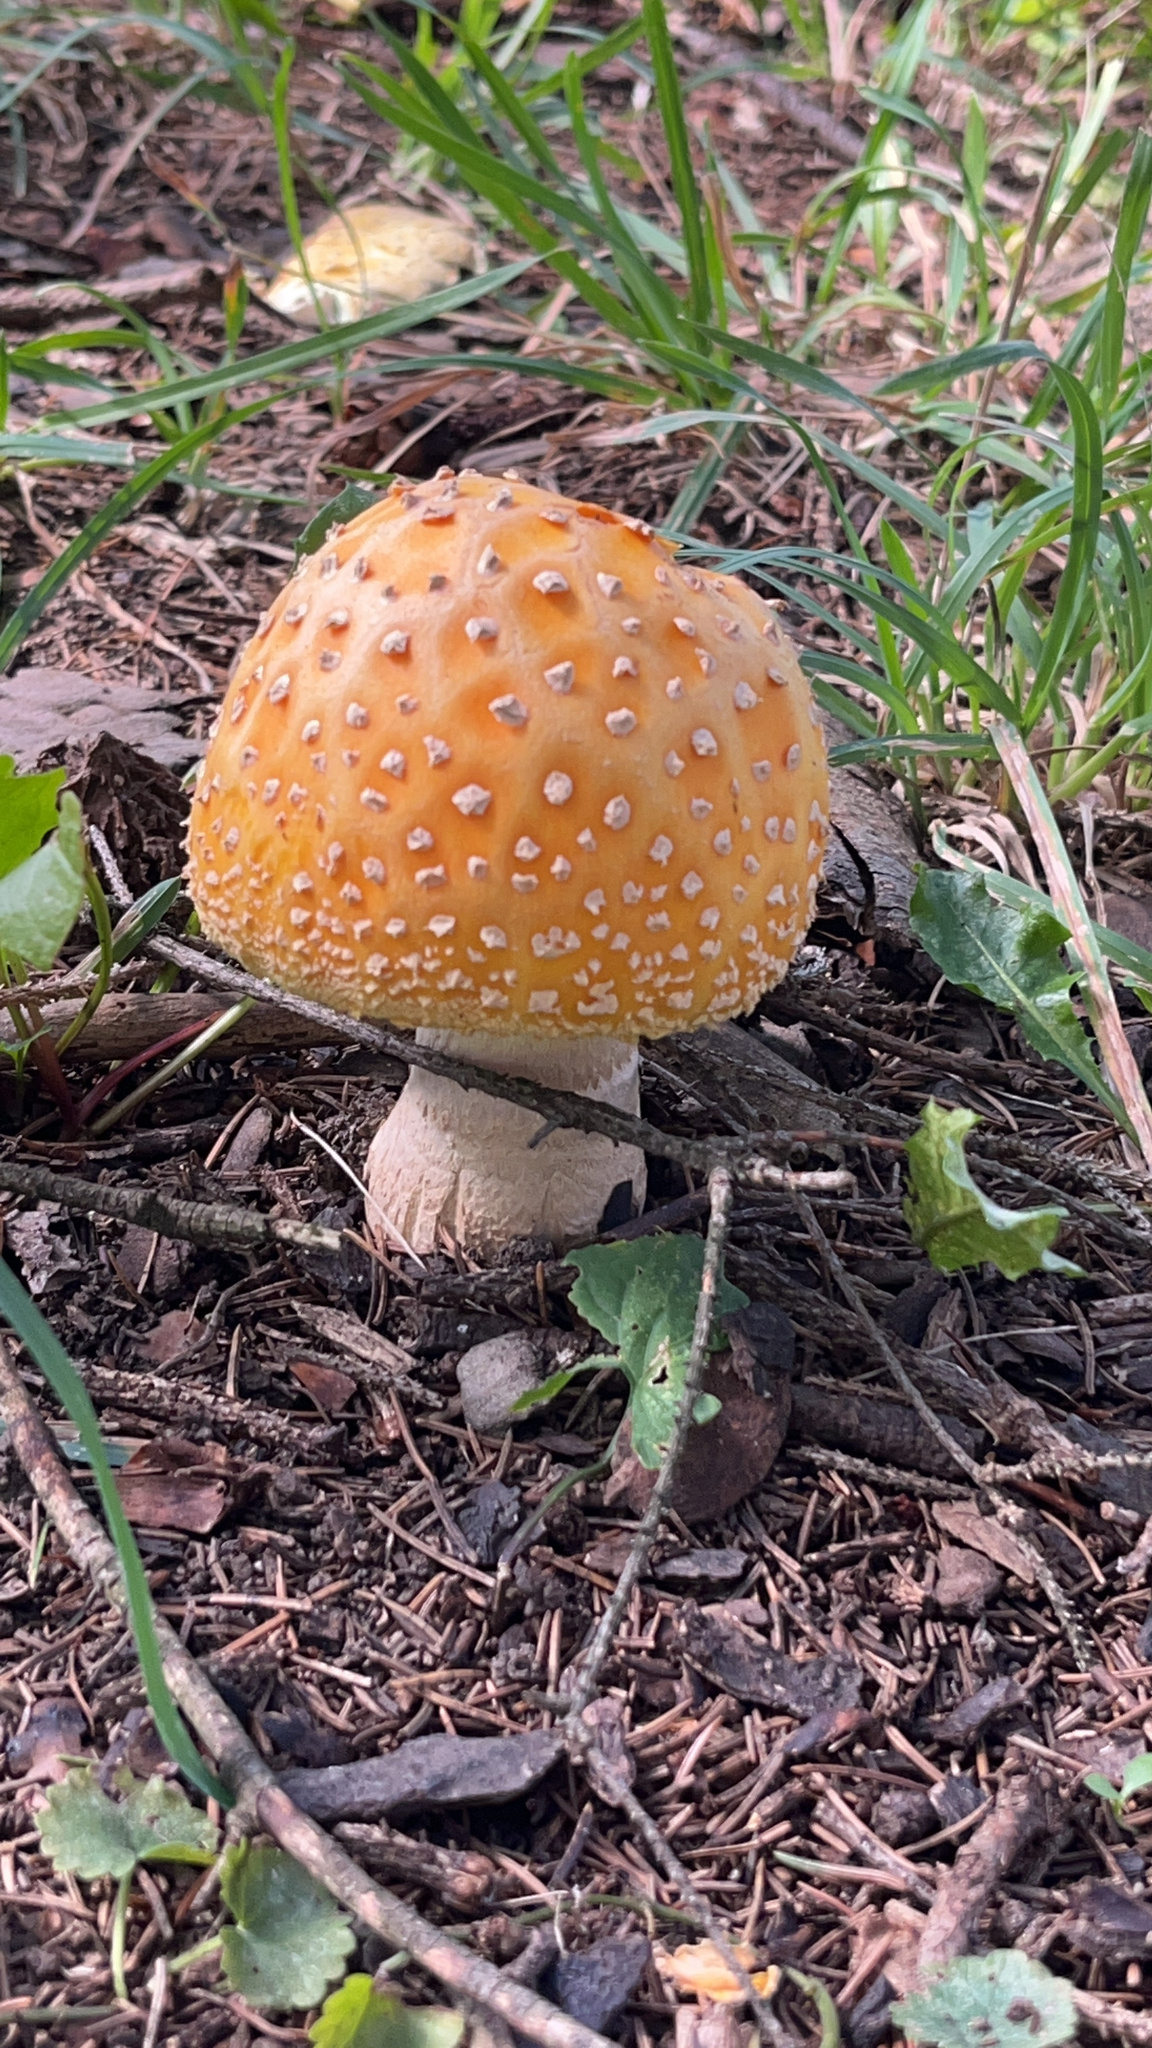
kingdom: Fungi
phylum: Basidiomycota
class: Agaricomycetes
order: Agaricales
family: Amanitaceae
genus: Amanita
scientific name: Amanita
